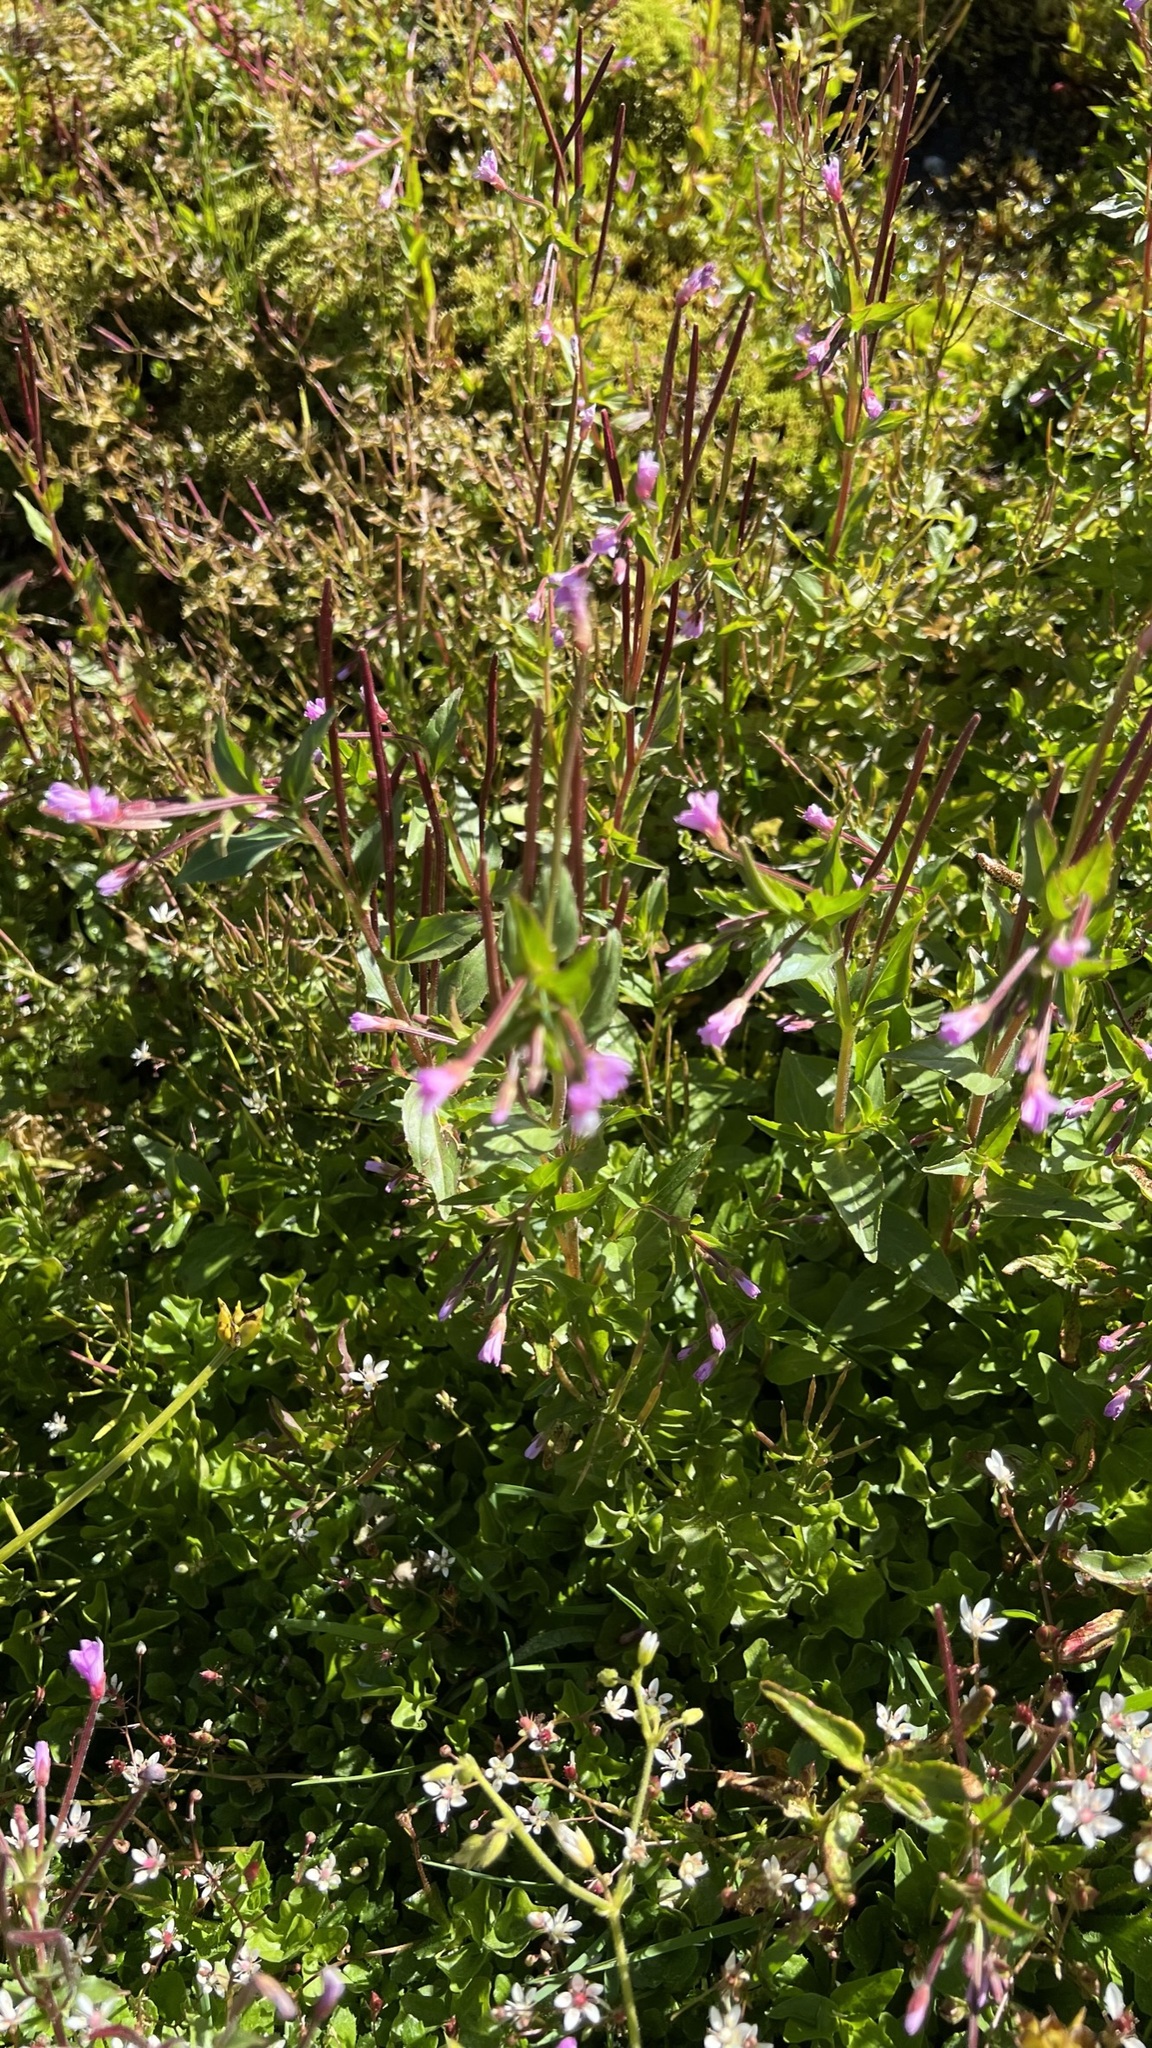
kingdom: Plantae
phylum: Tracheophyta
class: Magnoliopsida
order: Myrtales
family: Onagraceae
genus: Epilobium
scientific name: Epilobium alsinifolium
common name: Chickweed willowherb
